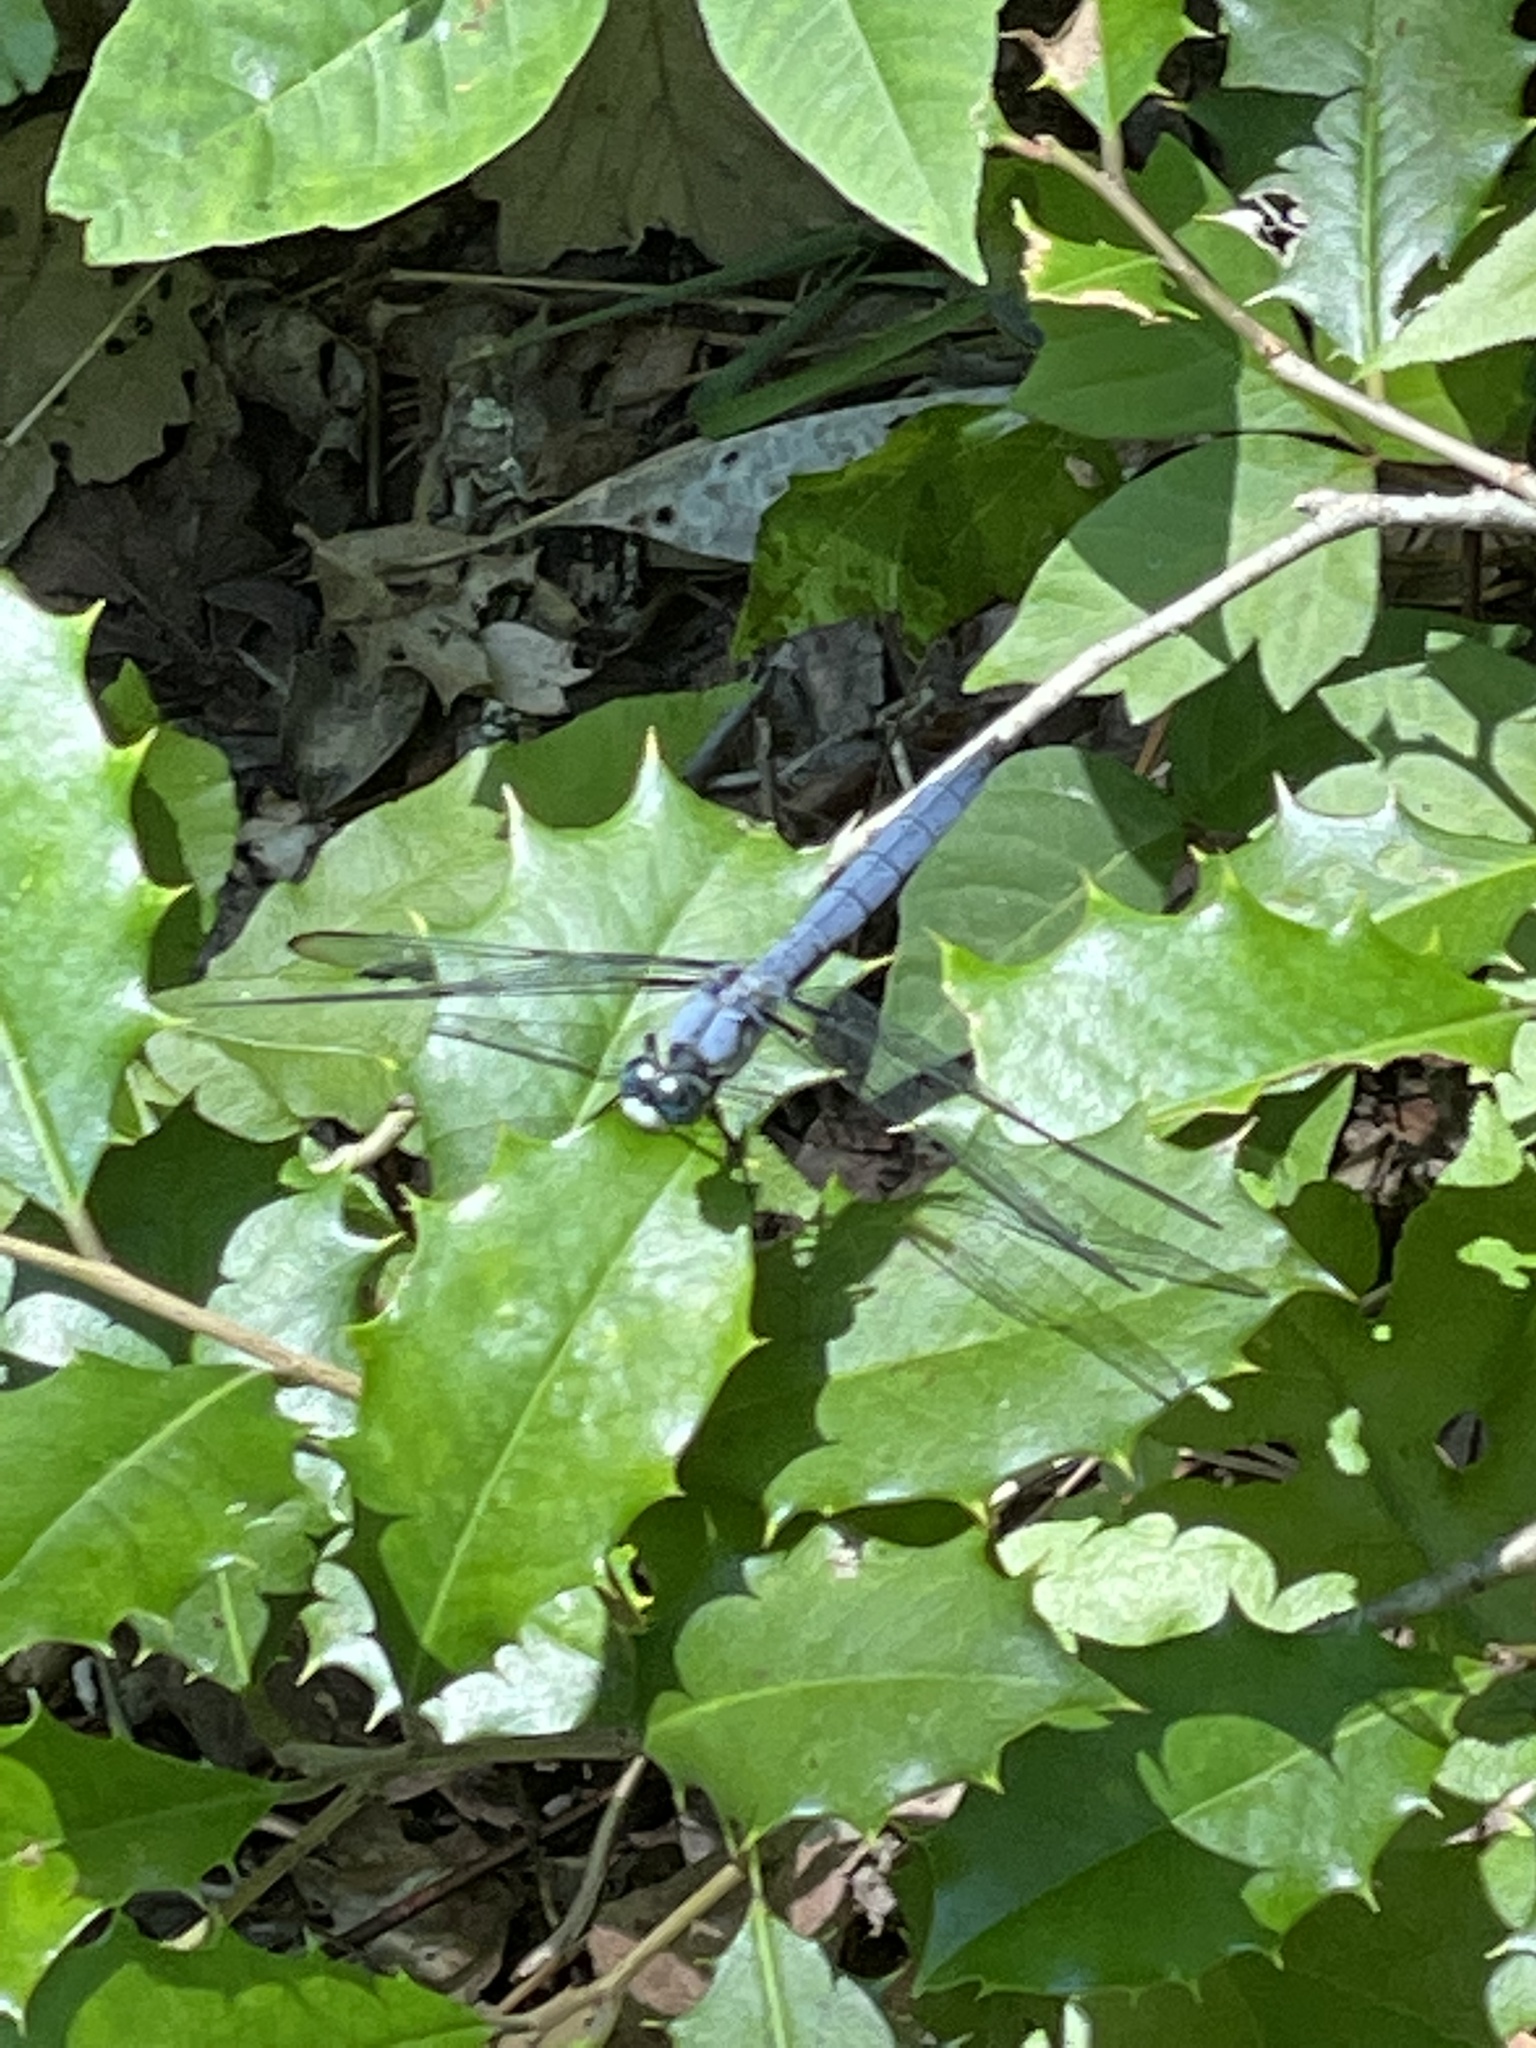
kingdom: Animalia
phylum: Arthropoda
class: Insecta
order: Odonata
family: Libellulidae
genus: Libellula
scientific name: Libellula vibrans
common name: Great blue skimmer
